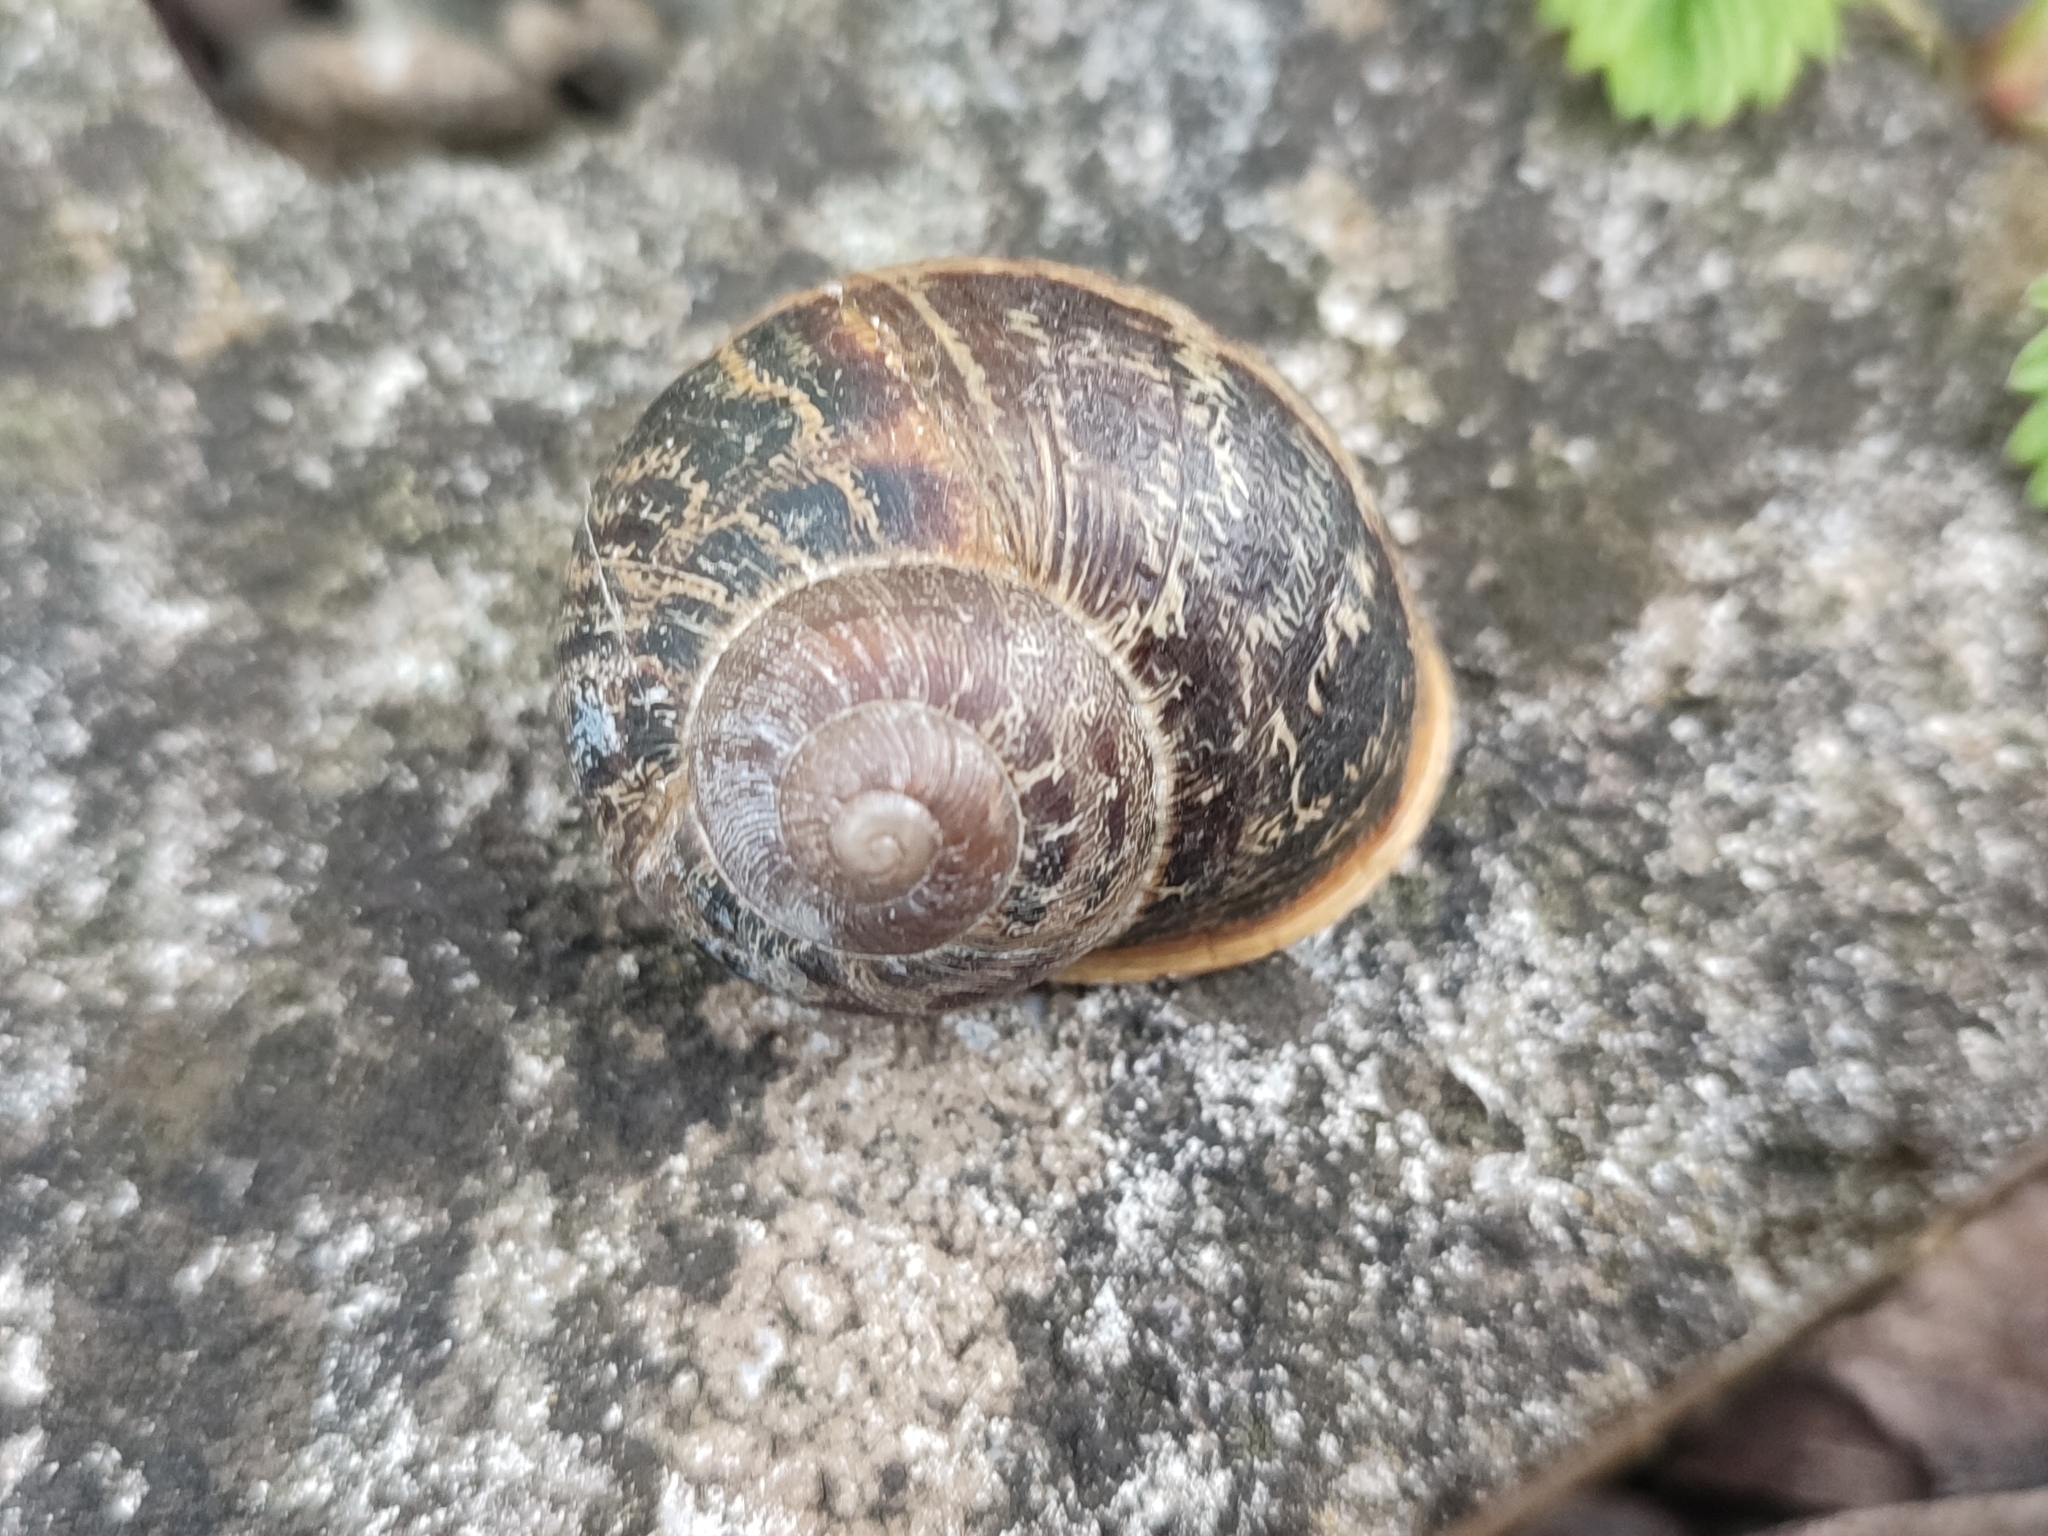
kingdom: Animalia
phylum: Mollusca
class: Gastropoda
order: Stylommatophora
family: Helicidae
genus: Cornu
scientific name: Cornu aspersum
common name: Brown garden snail
